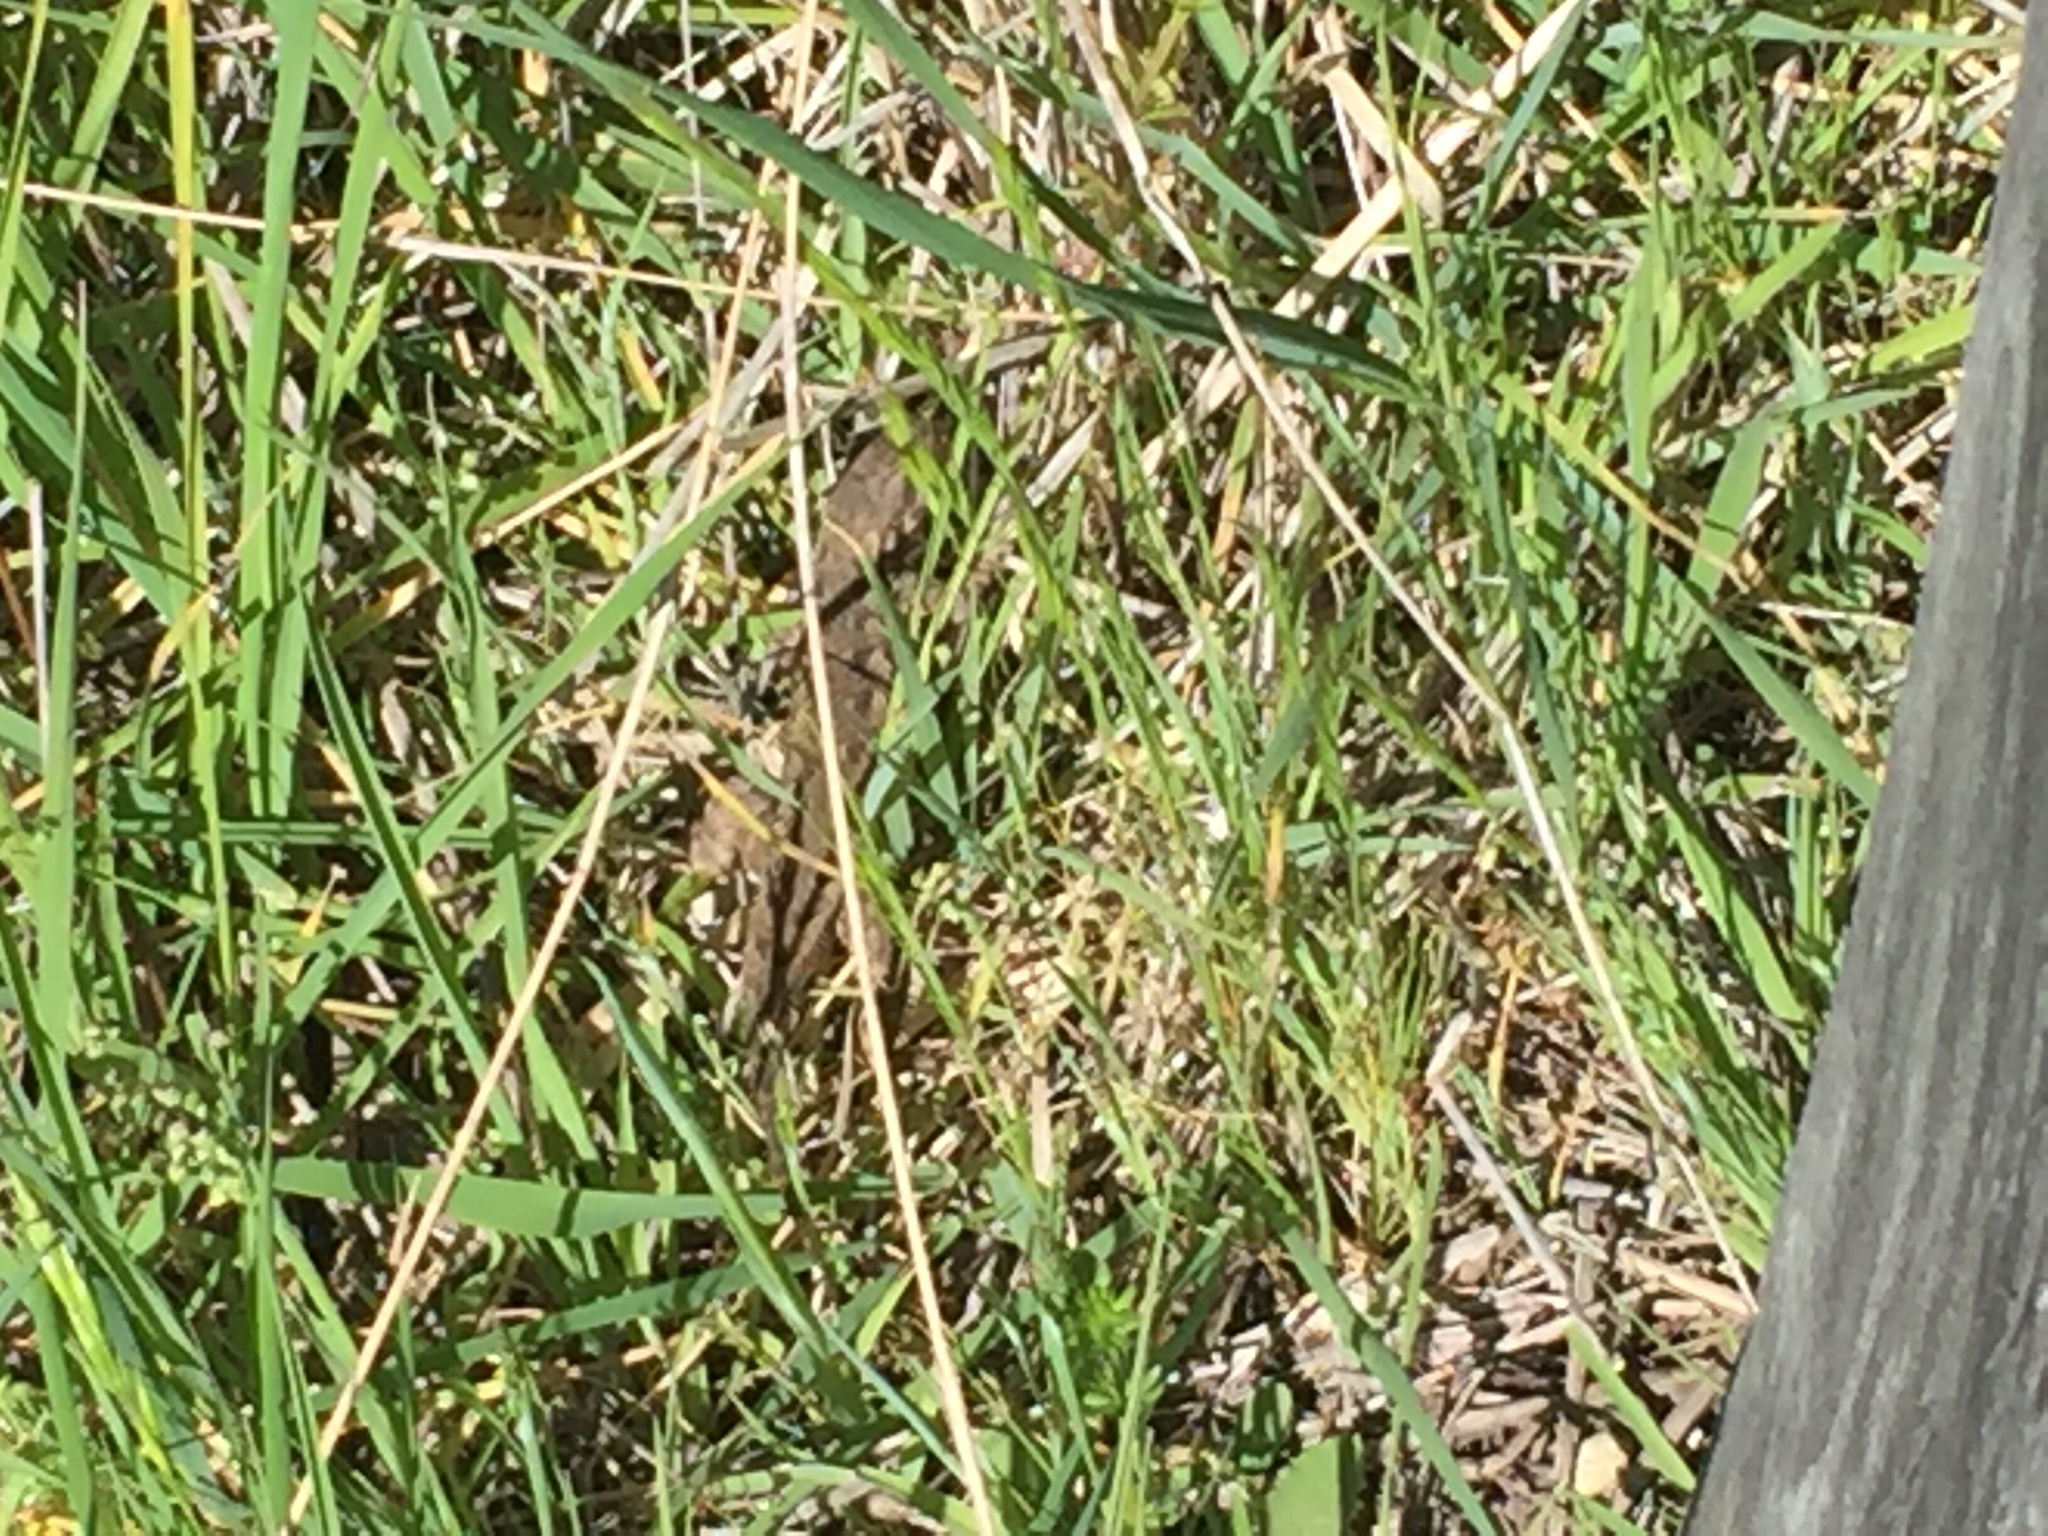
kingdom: Animalia
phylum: Chordata
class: Squamata
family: Phrynosomatidae
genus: Sceloporus
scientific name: Sceloporus occidentalis
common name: Western fence lizard
